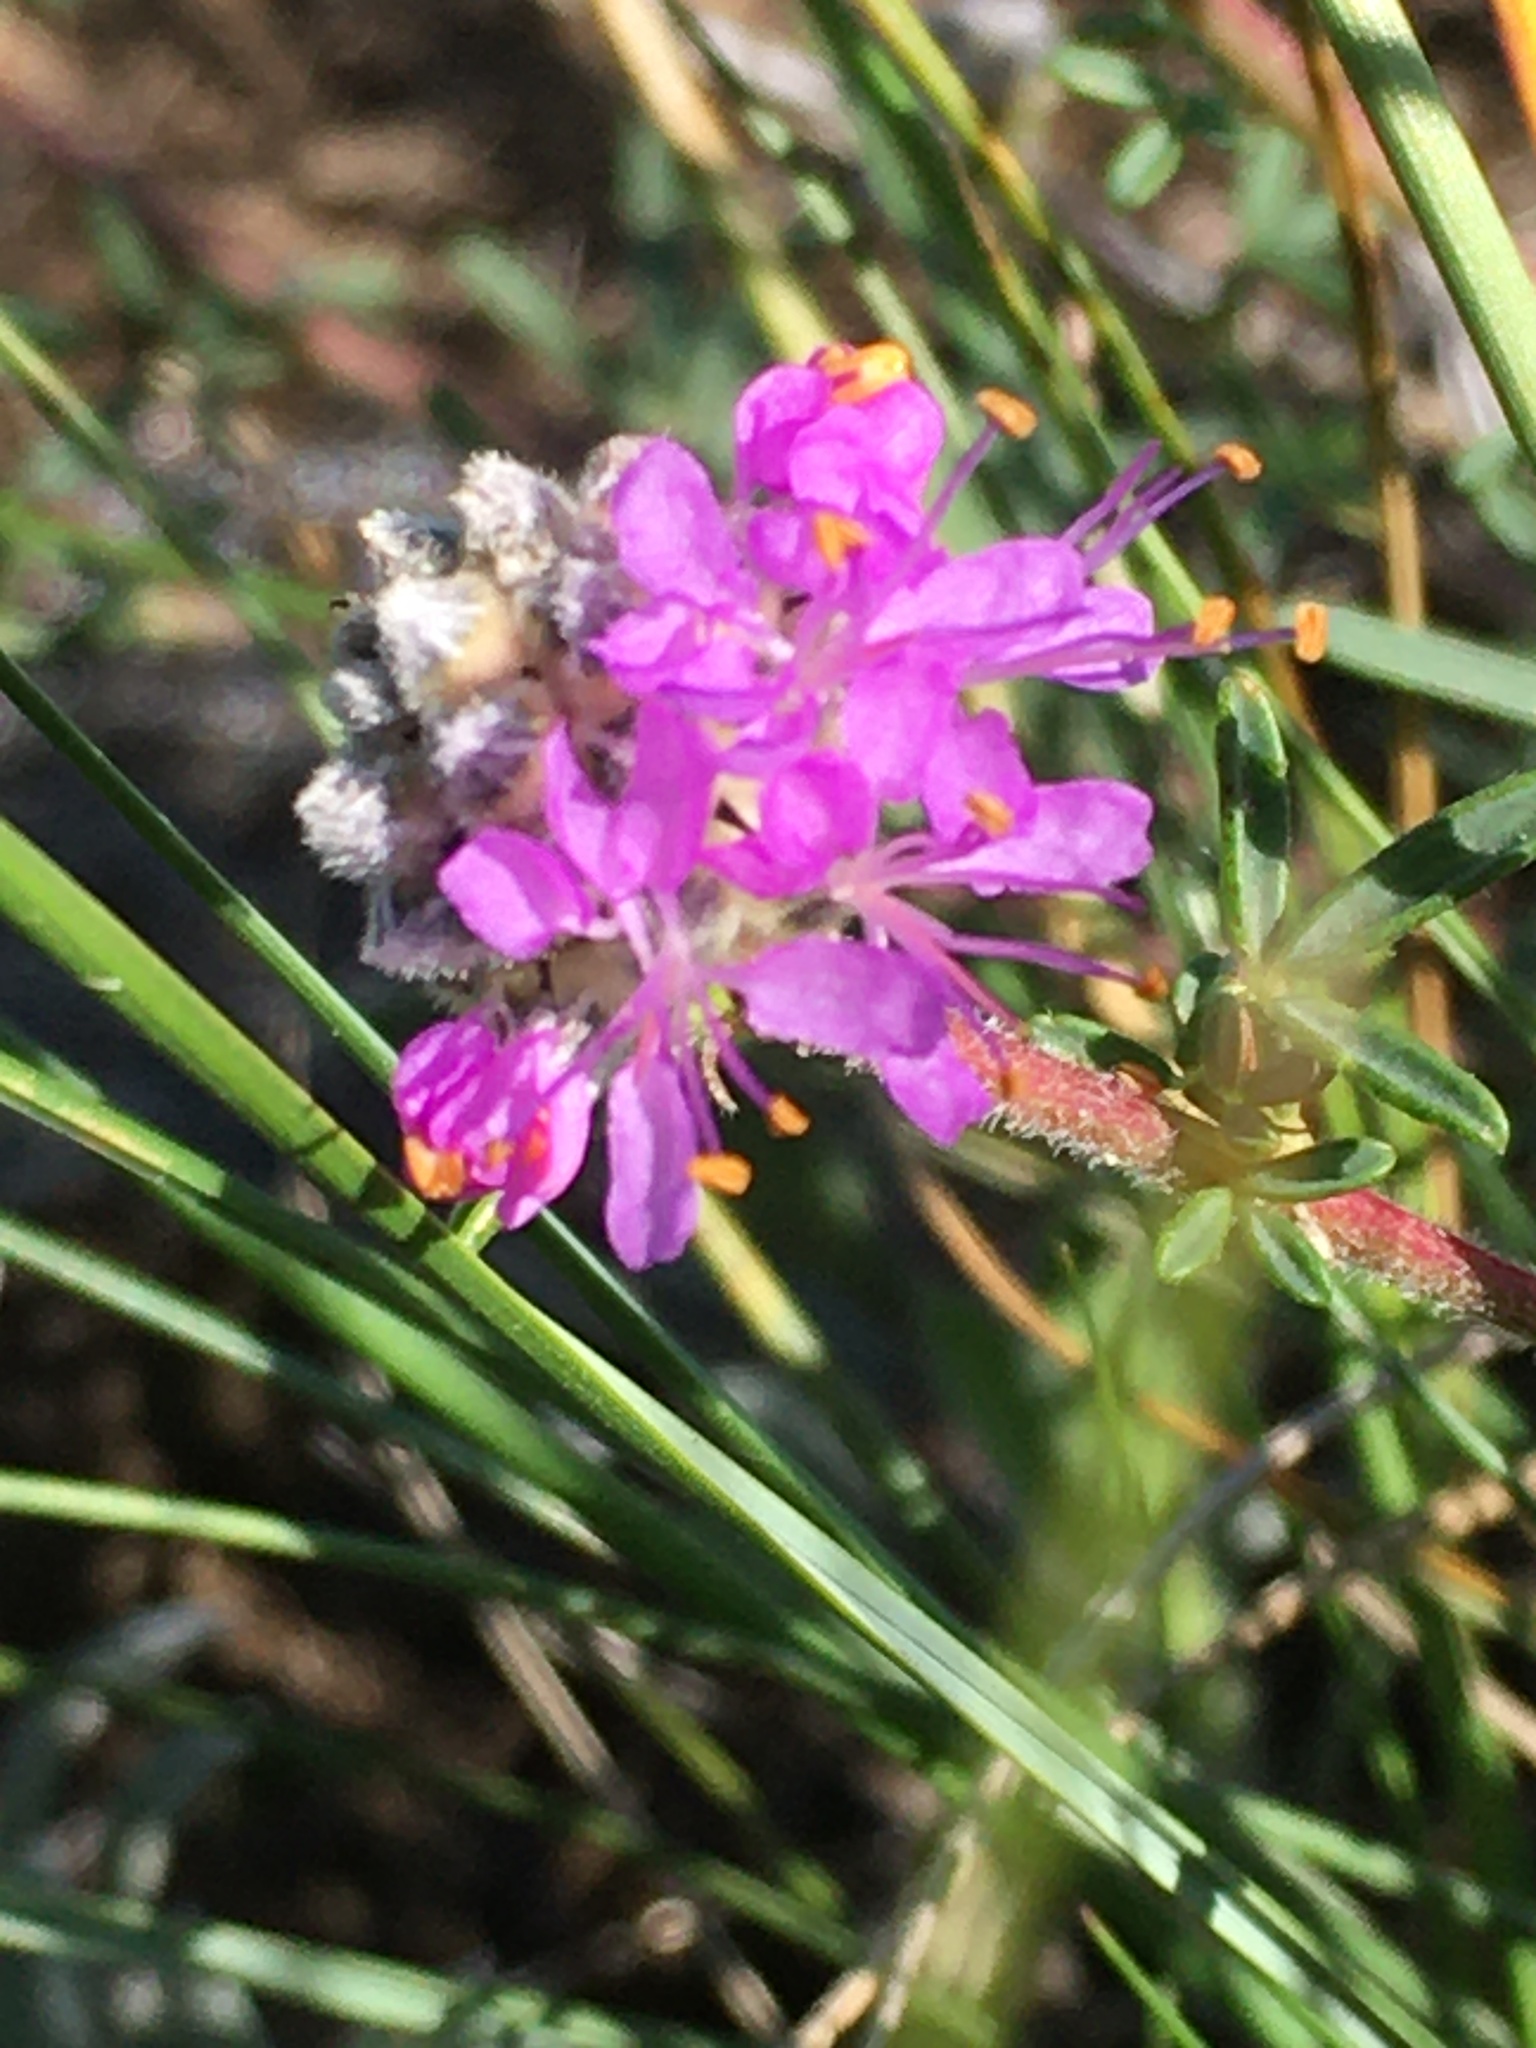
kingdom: Plantae
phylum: Tracheophyta
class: Magnoliopsida
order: Fabales
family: Fabaceae
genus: Dalea
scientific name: Dalea purpurea
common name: Purple prairie-clover
